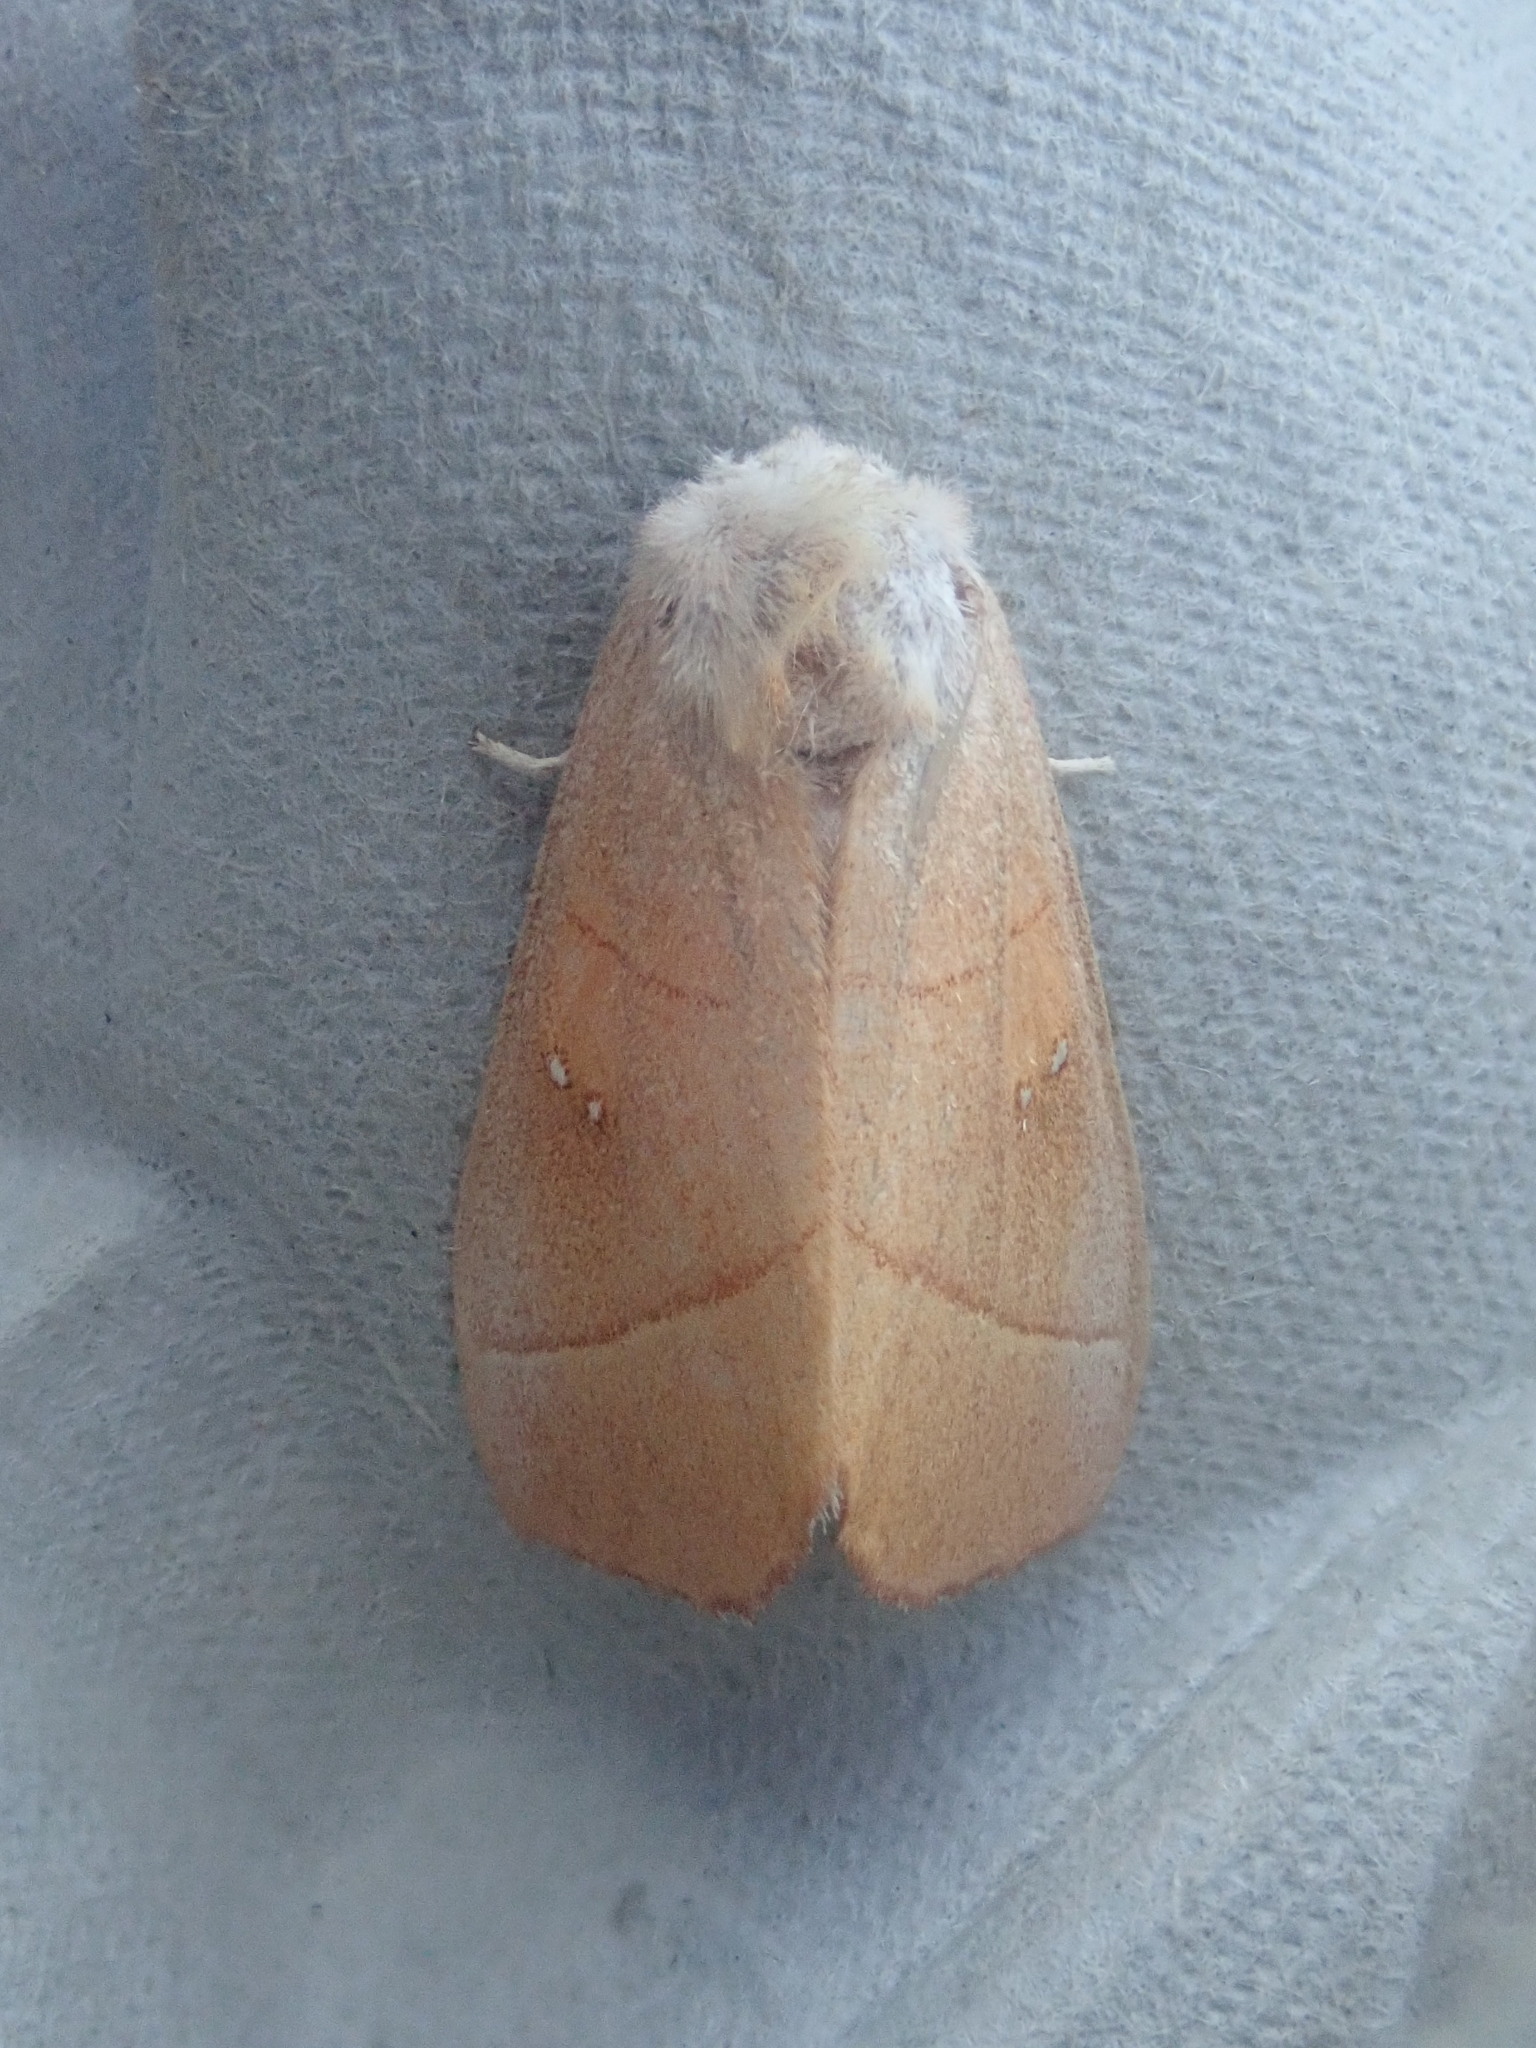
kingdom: Animalia
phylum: Arthropoda
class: Insecta
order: Lepidoptera
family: Notodontidae
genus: Nadata
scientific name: Nadata gibbosa
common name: White-dotted prominent
